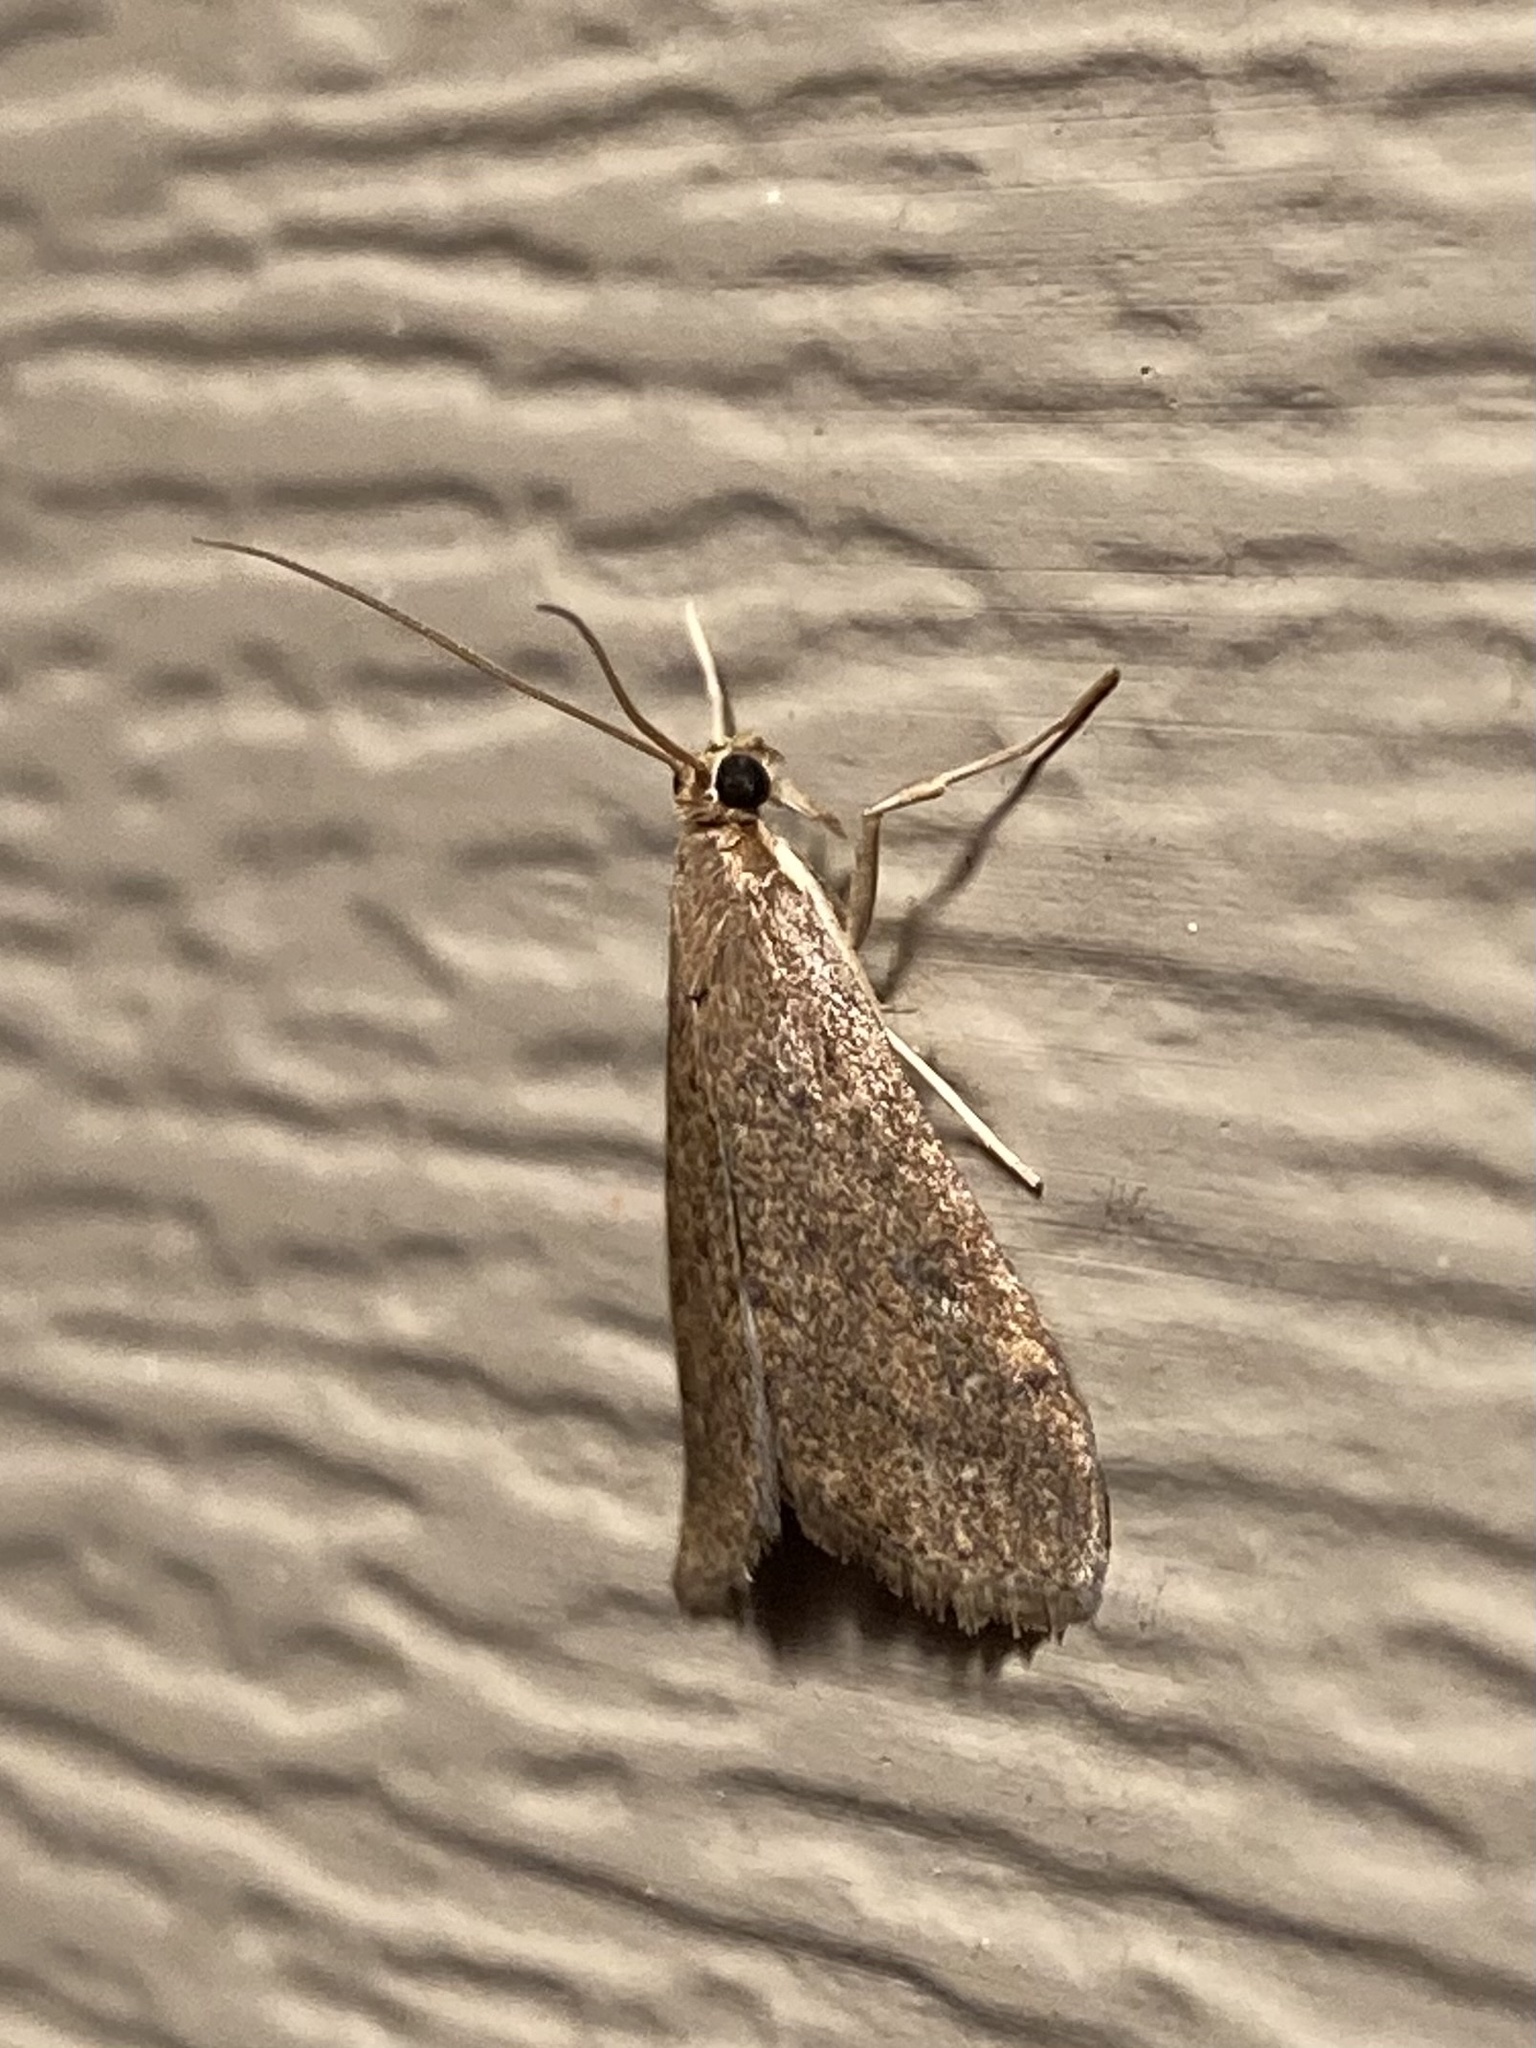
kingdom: Animalia
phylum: Arthropoda
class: Insecta
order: Lepidoptera
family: Crambidae
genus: Udea
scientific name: Udea rubigalis
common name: Celery leaftier moth
